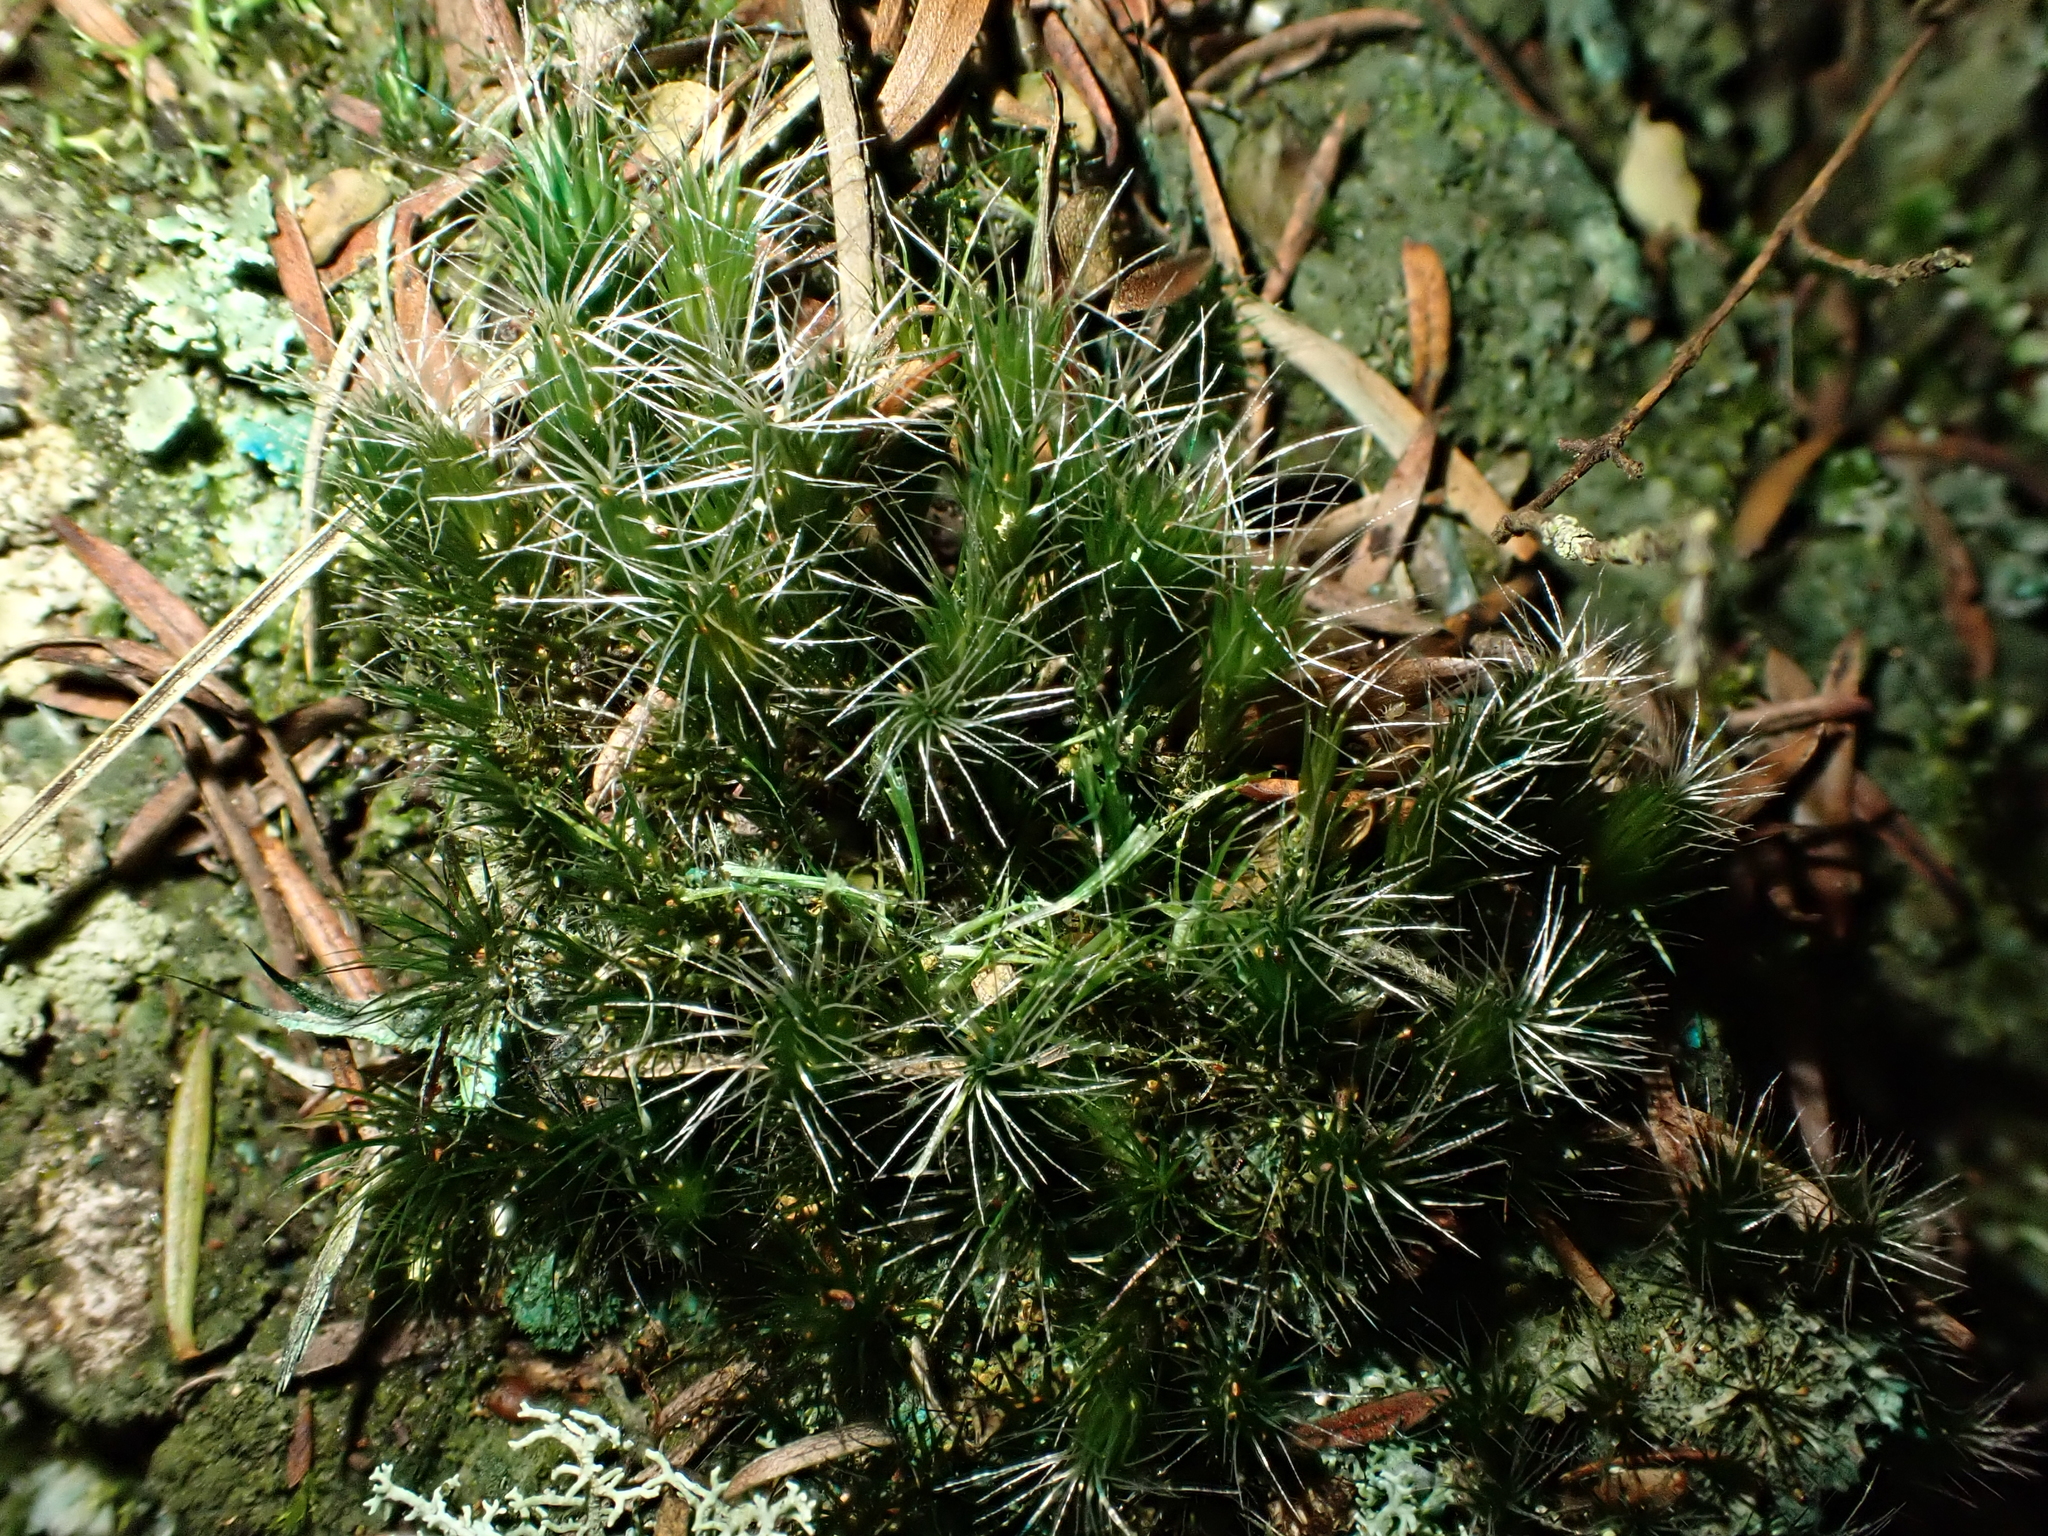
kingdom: Plantae
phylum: Bryophyta
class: Bryopsida
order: Dicranales
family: Leucobryaceae
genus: Campylopus
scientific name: Campylopus introflexus
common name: Heath star moss
